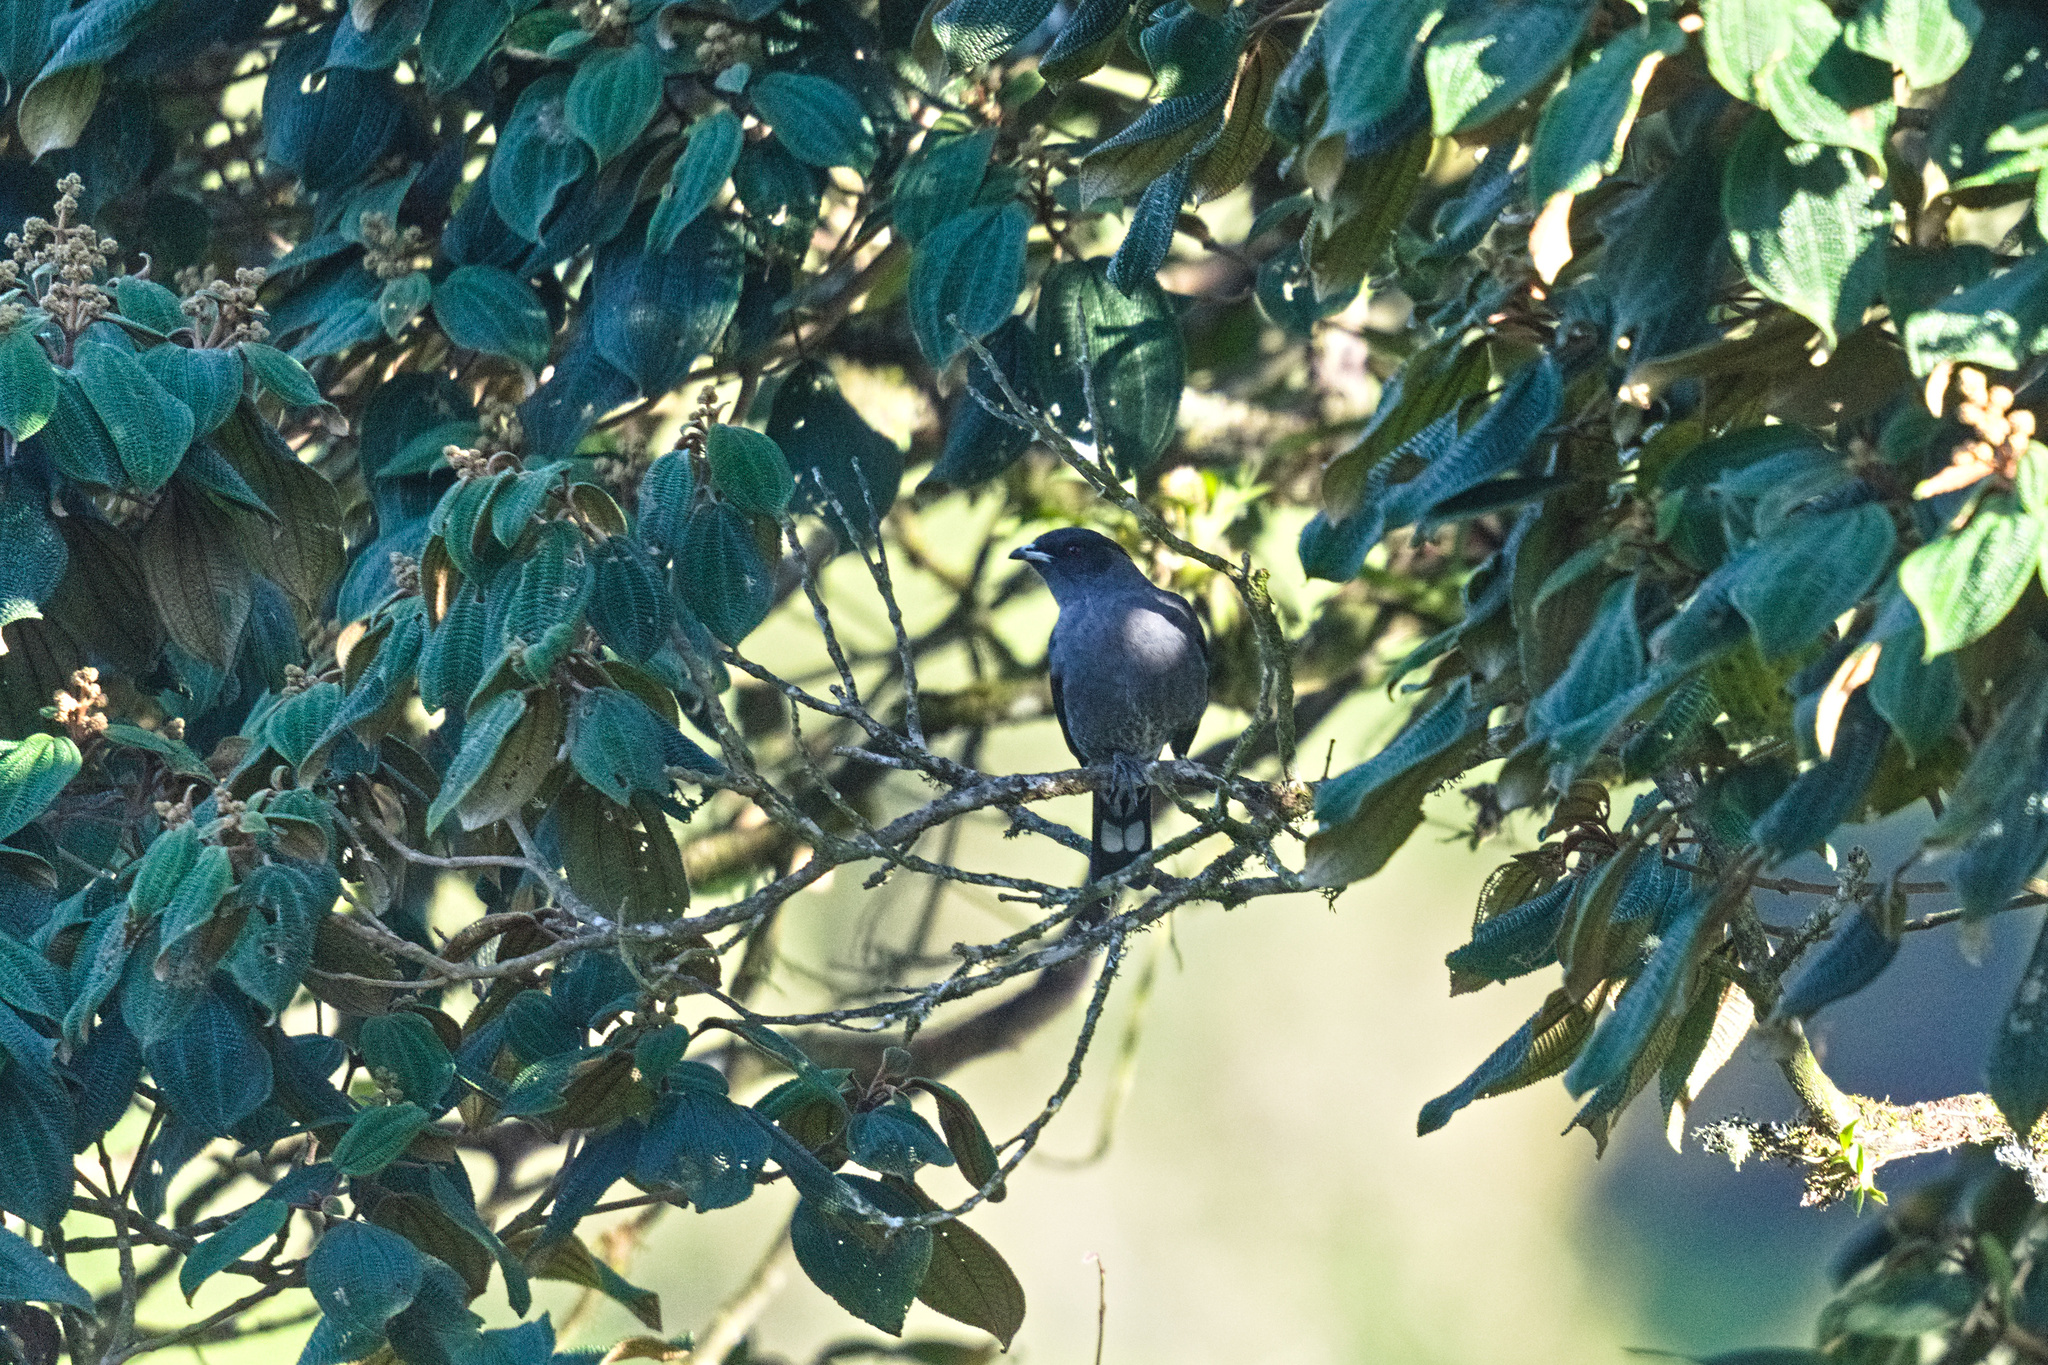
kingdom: Animalia
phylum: Chordata
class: Aves
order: Passeriformes
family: Cotingidae
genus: Ampelion
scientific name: Ampelion rubrocristatus
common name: Red-crested cotinga
